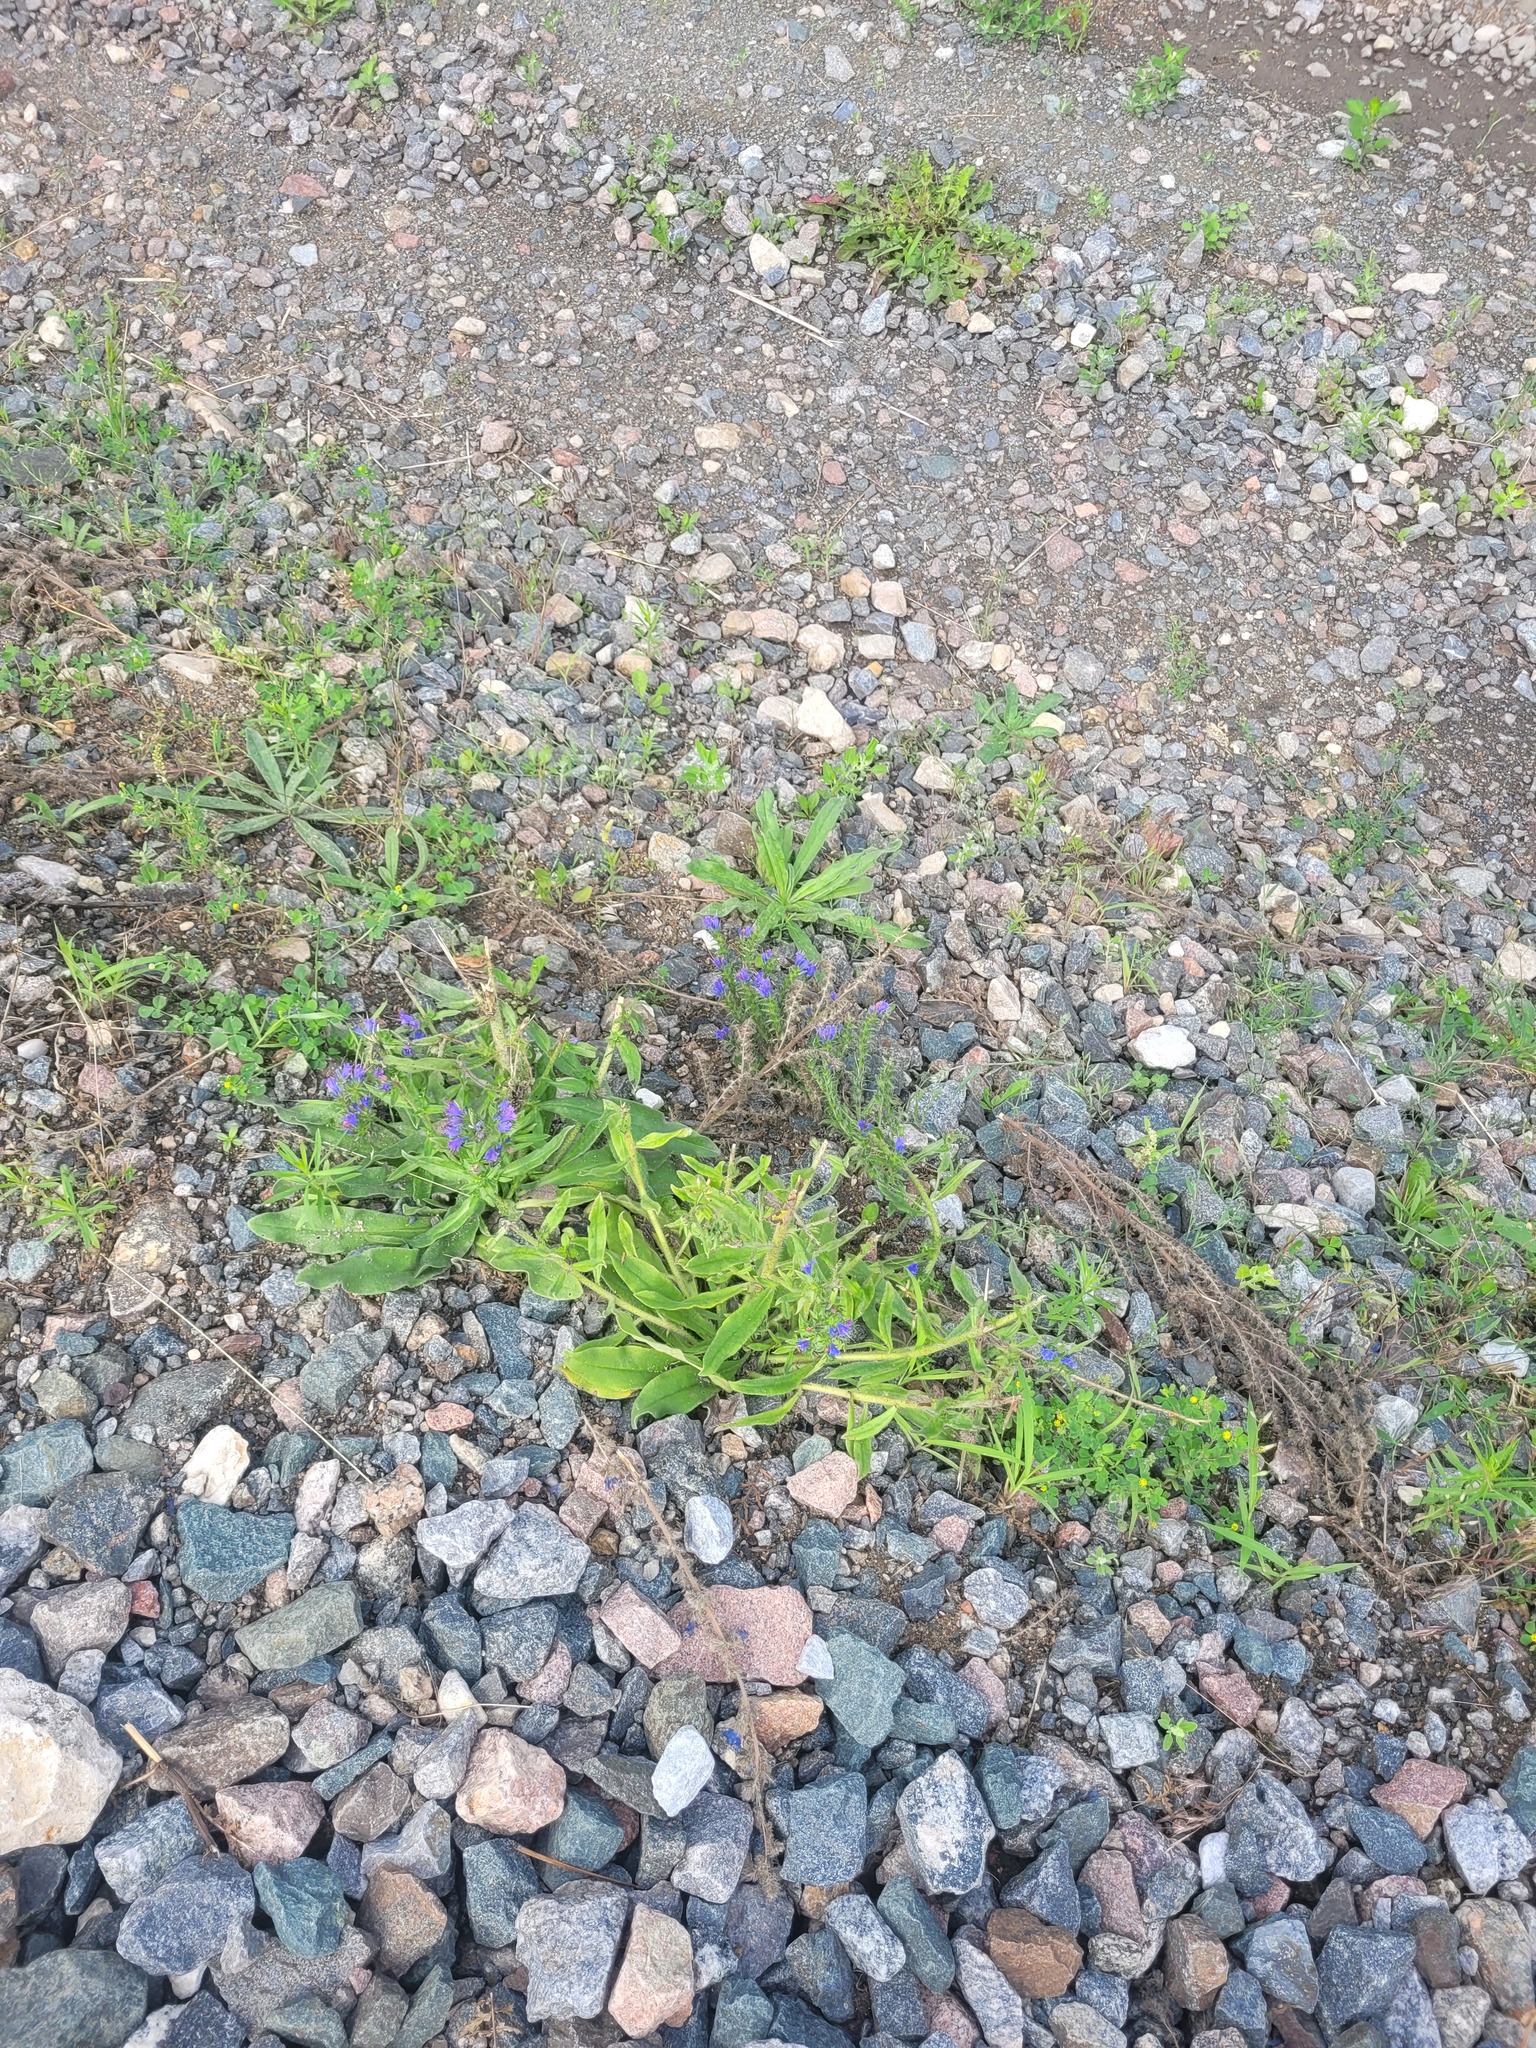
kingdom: Plantae
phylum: Tracheophyta
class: Magnoliopsida
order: Boraginales
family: Boraginaceae
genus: Echium
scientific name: Echium vulgare
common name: Common viper's bugloss
